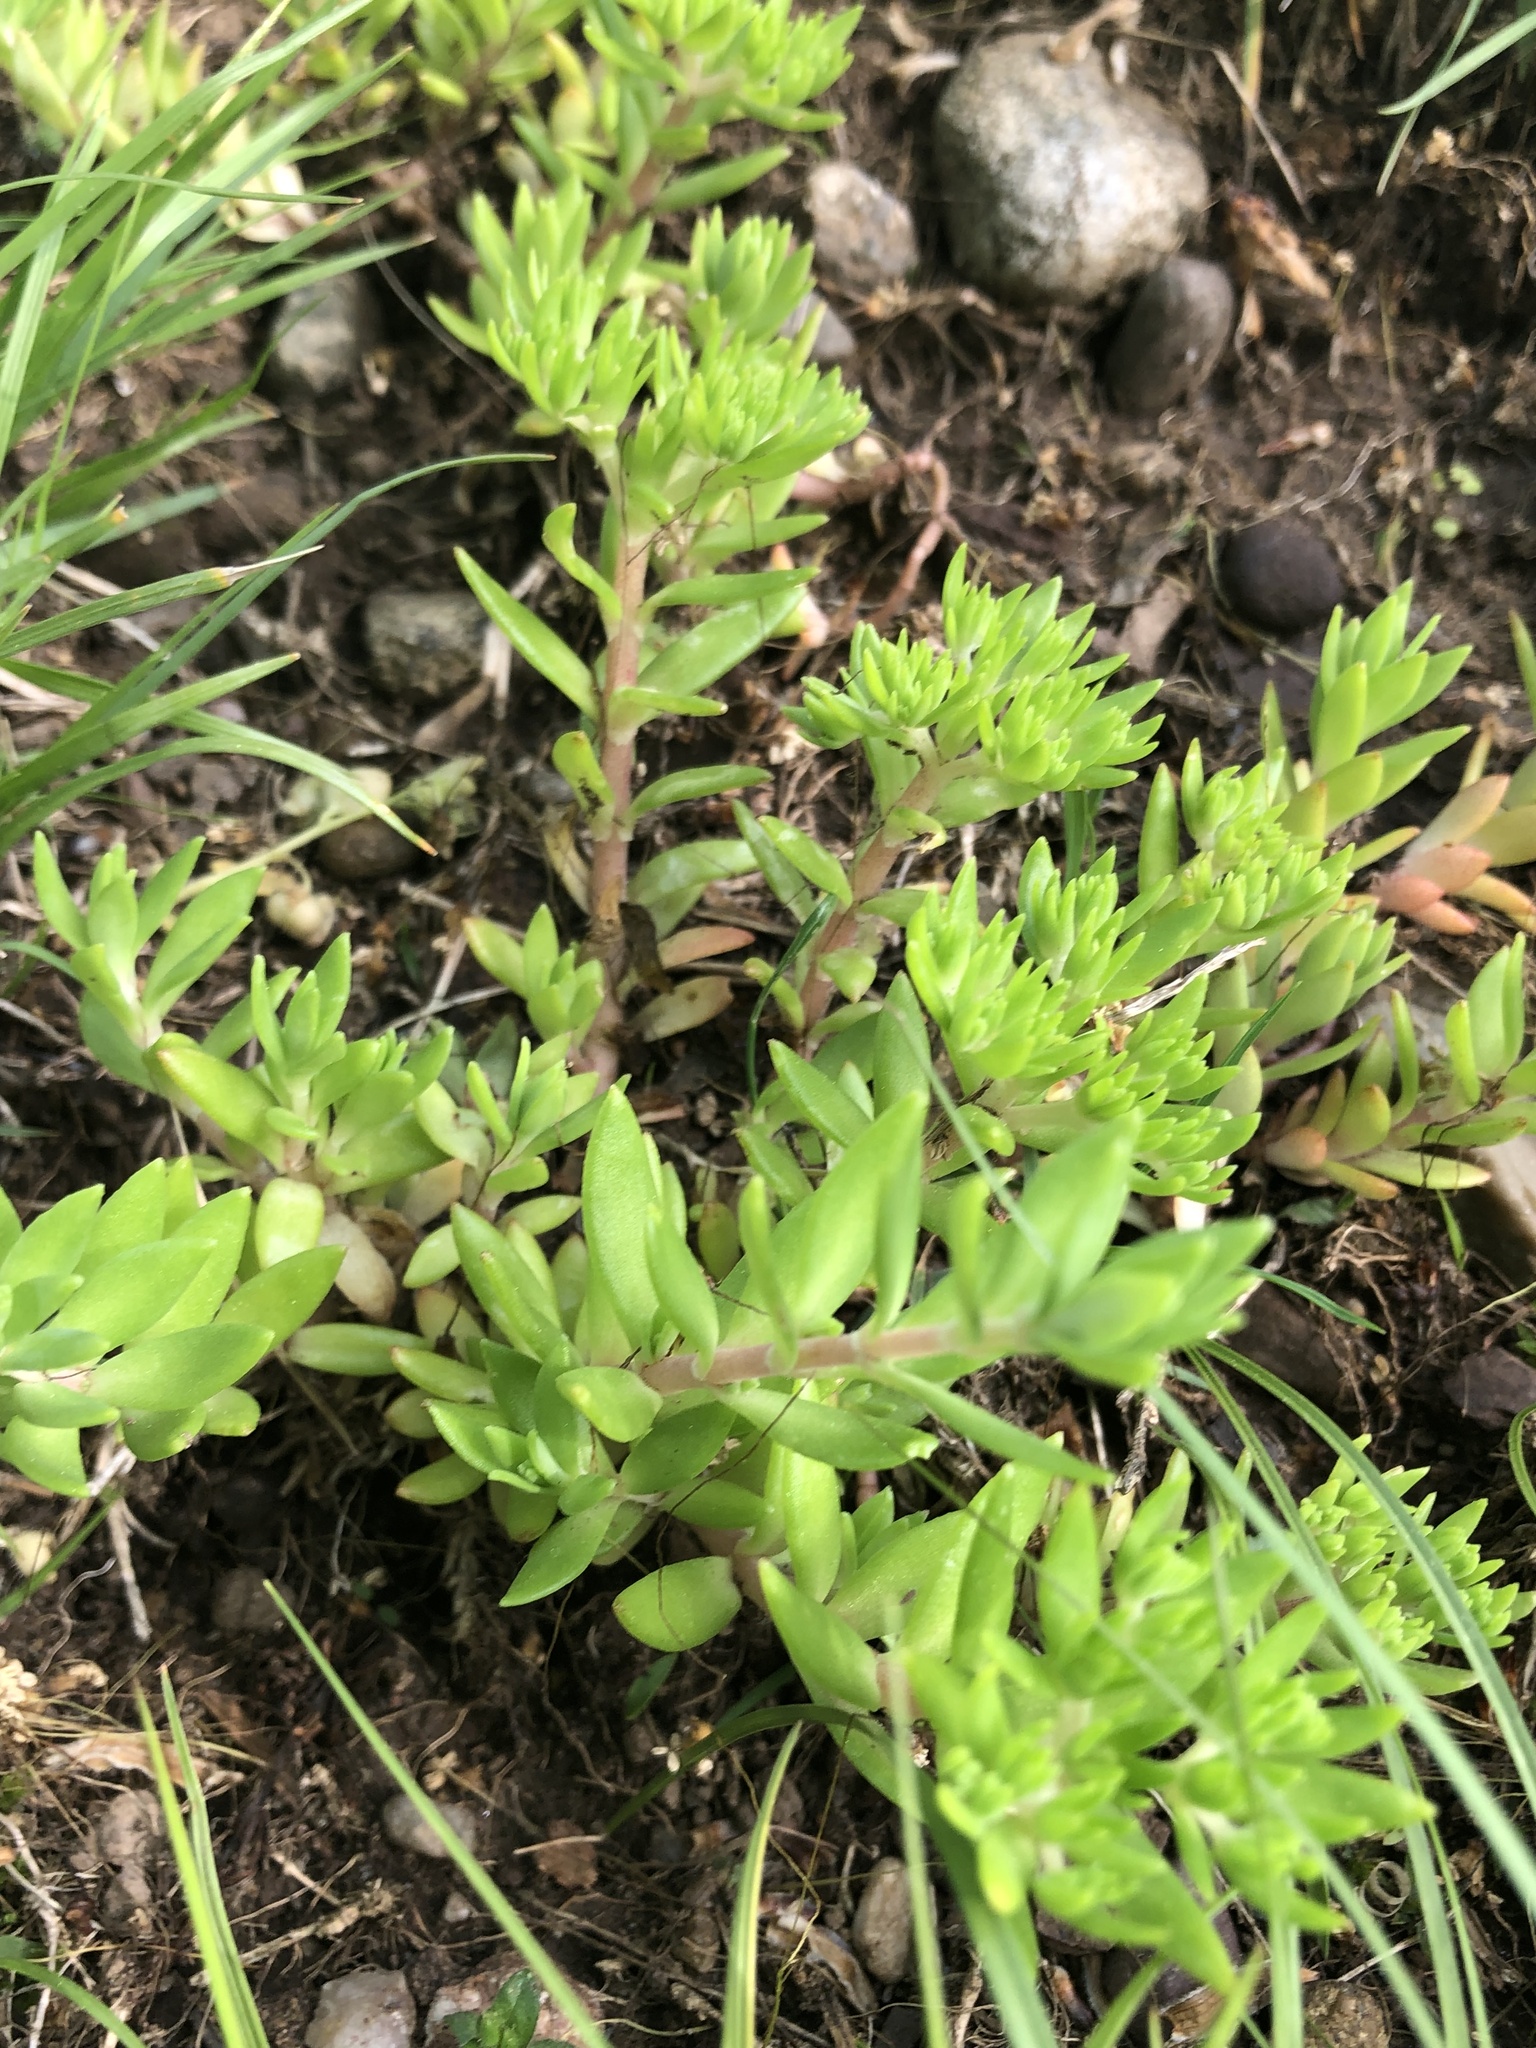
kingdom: Plantae
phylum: Tracheophyta
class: Magnoliopsida
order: Saxifragales
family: Crassulaceae
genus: Sedum
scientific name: Sedum sarmentosum
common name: Stringy stonecrop
